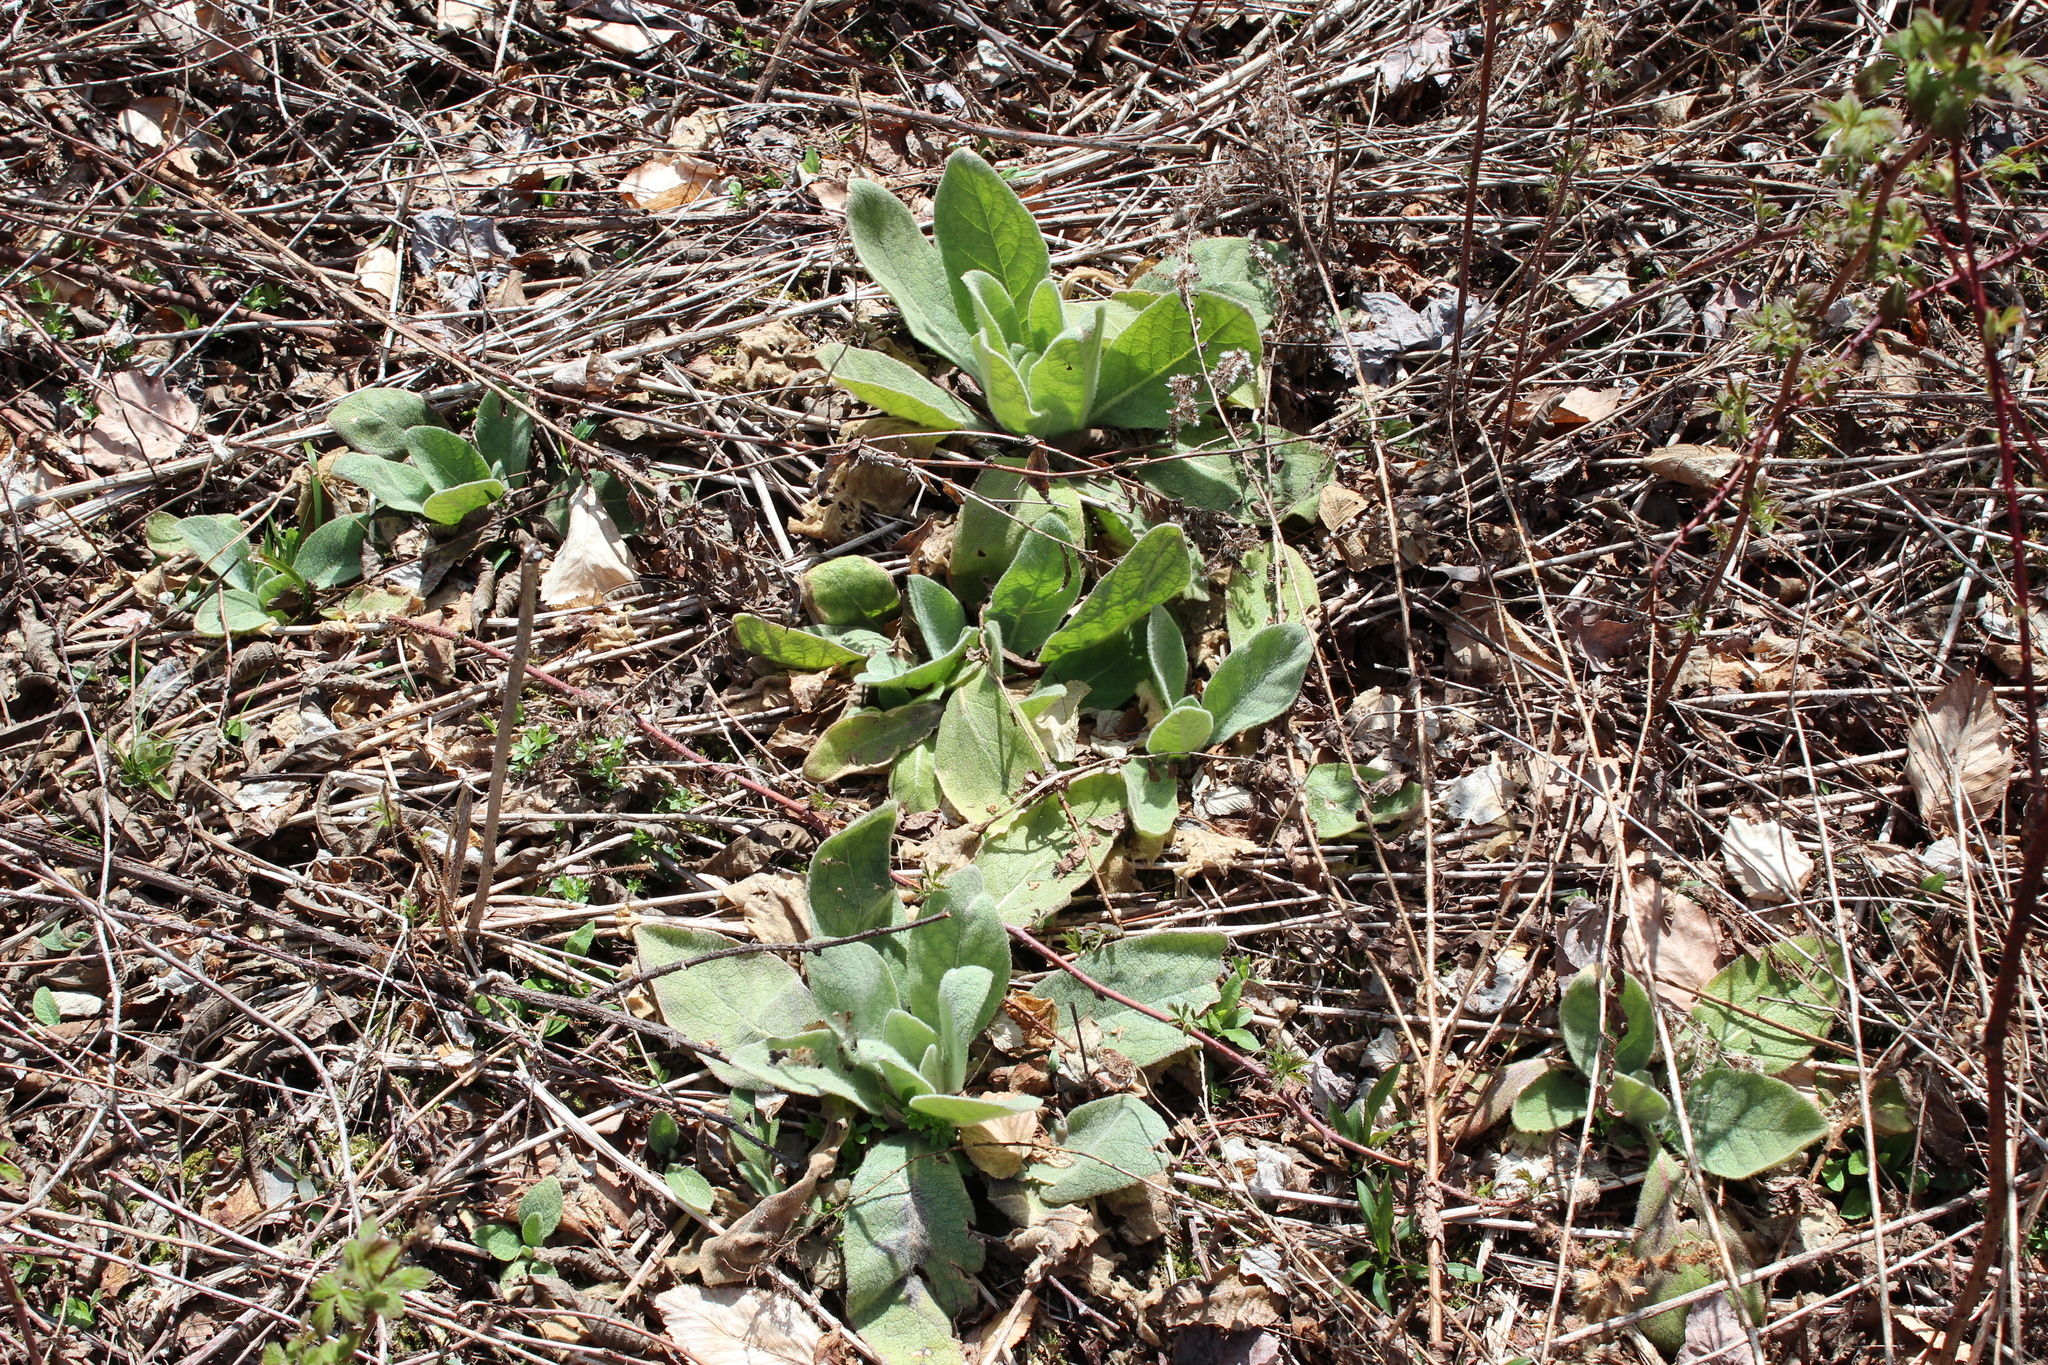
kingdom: Plantae
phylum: Tracheophyta
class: Magnoliopsida
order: Lamiales
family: Scrophulariaceae
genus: Verbascum
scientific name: Verbascum thapsus
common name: Common mullein
